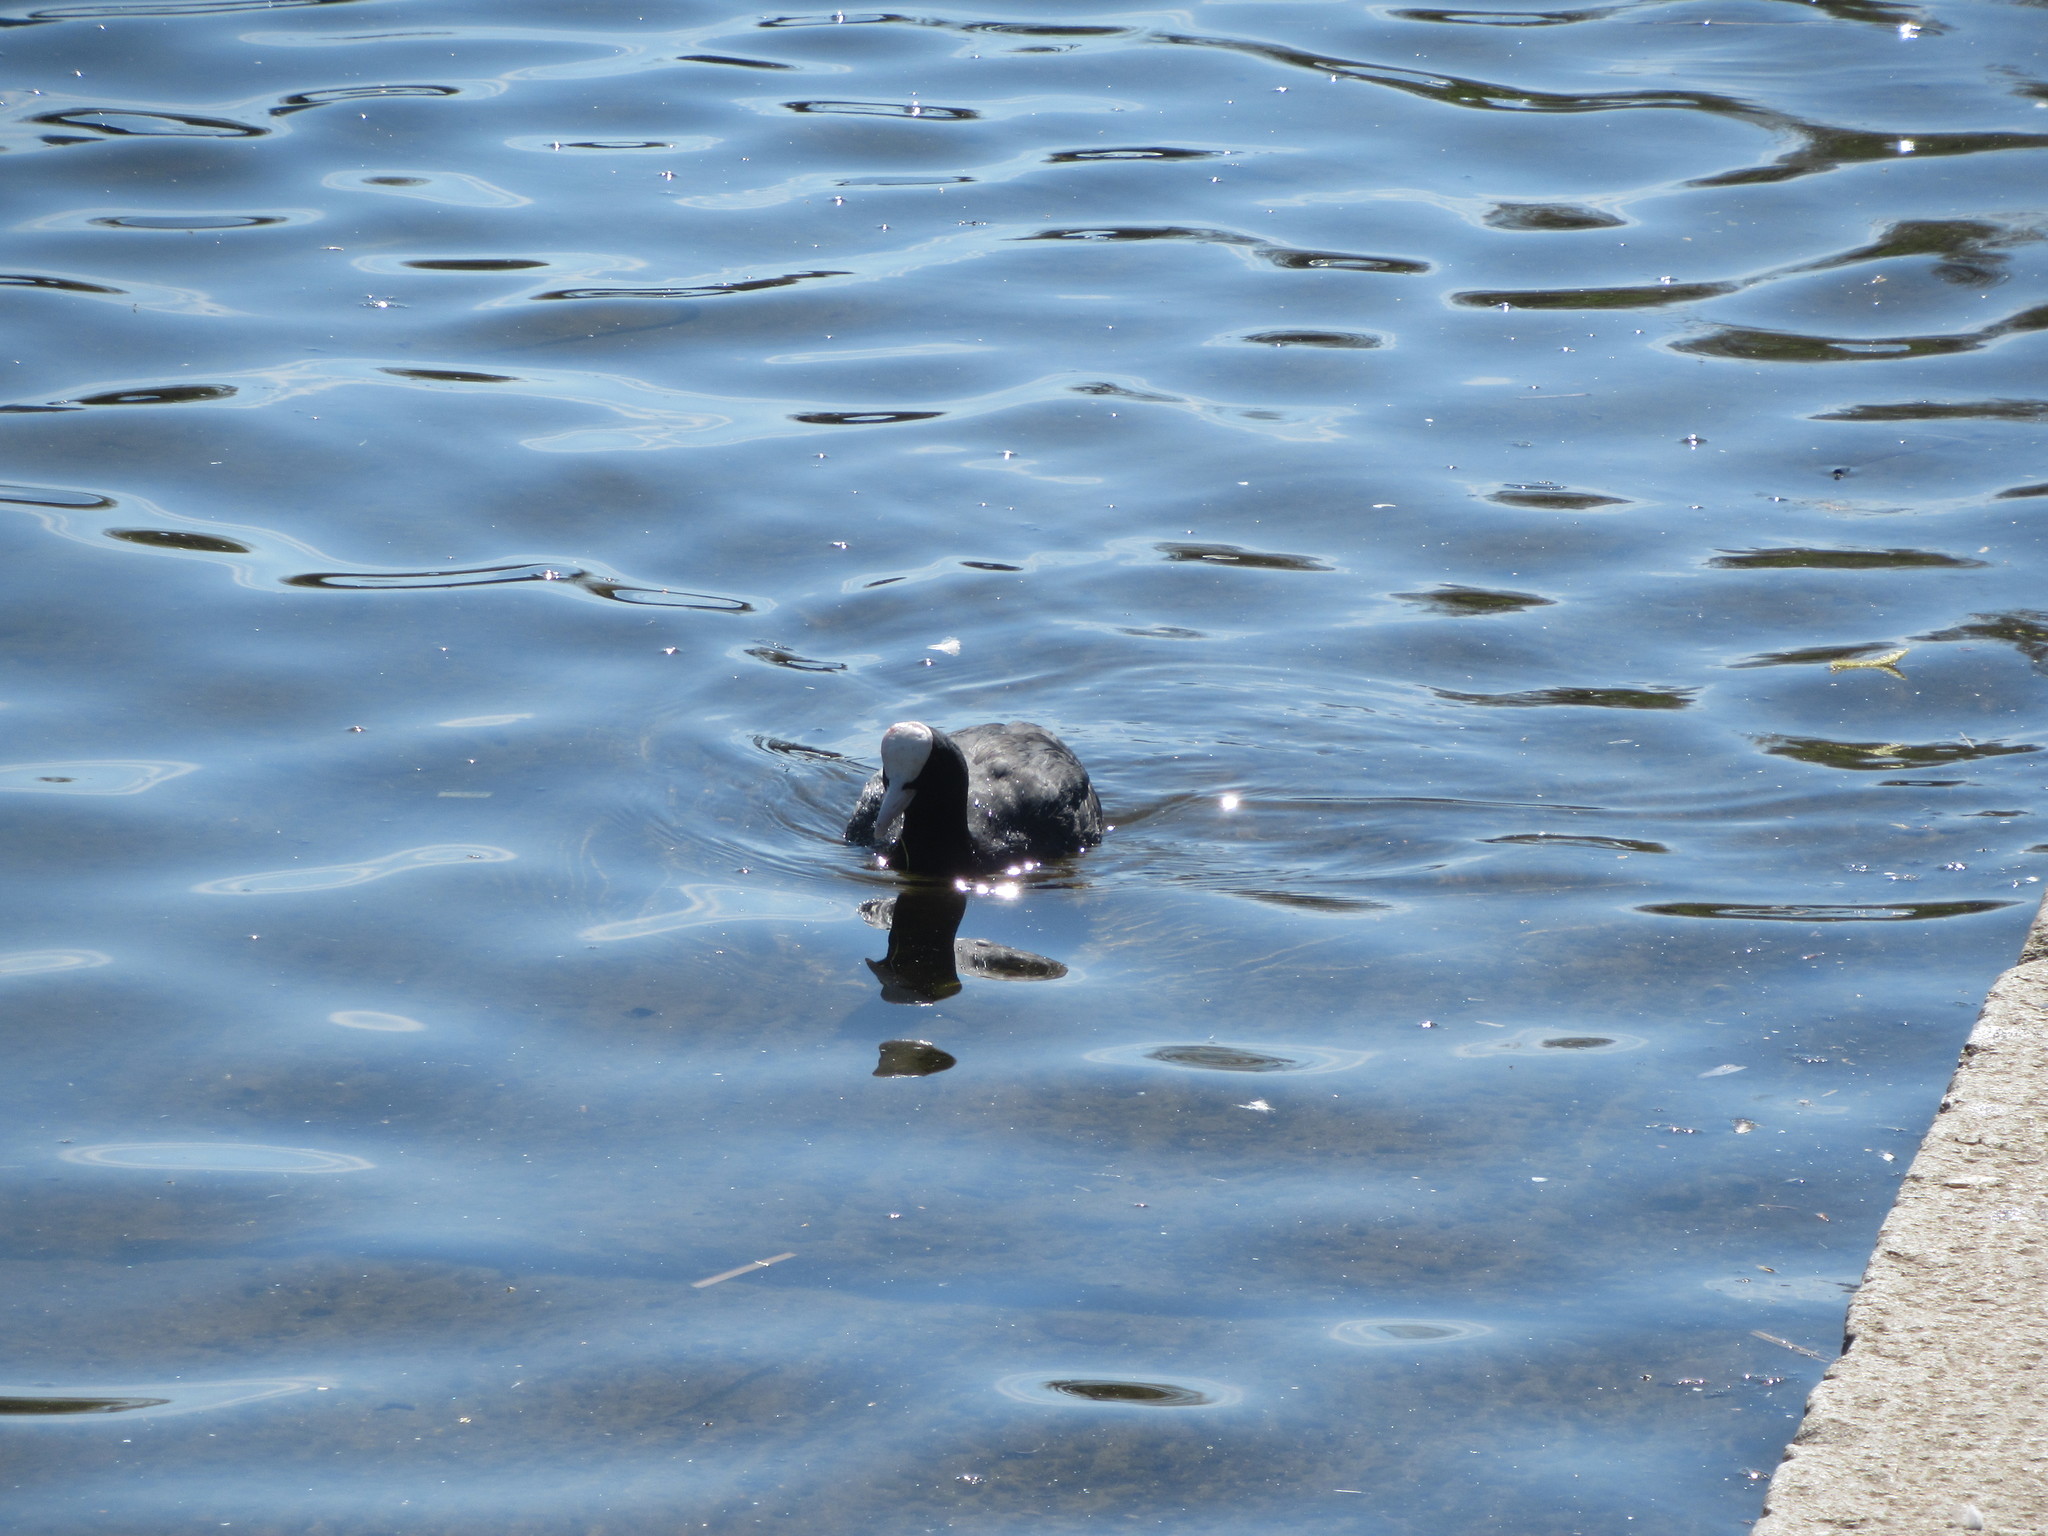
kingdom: Animalia
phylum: Chordata
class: Aves
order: Gruiformes
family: Rallidae
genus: Fulica
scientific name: Fulica atra
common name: Eurasian coot
